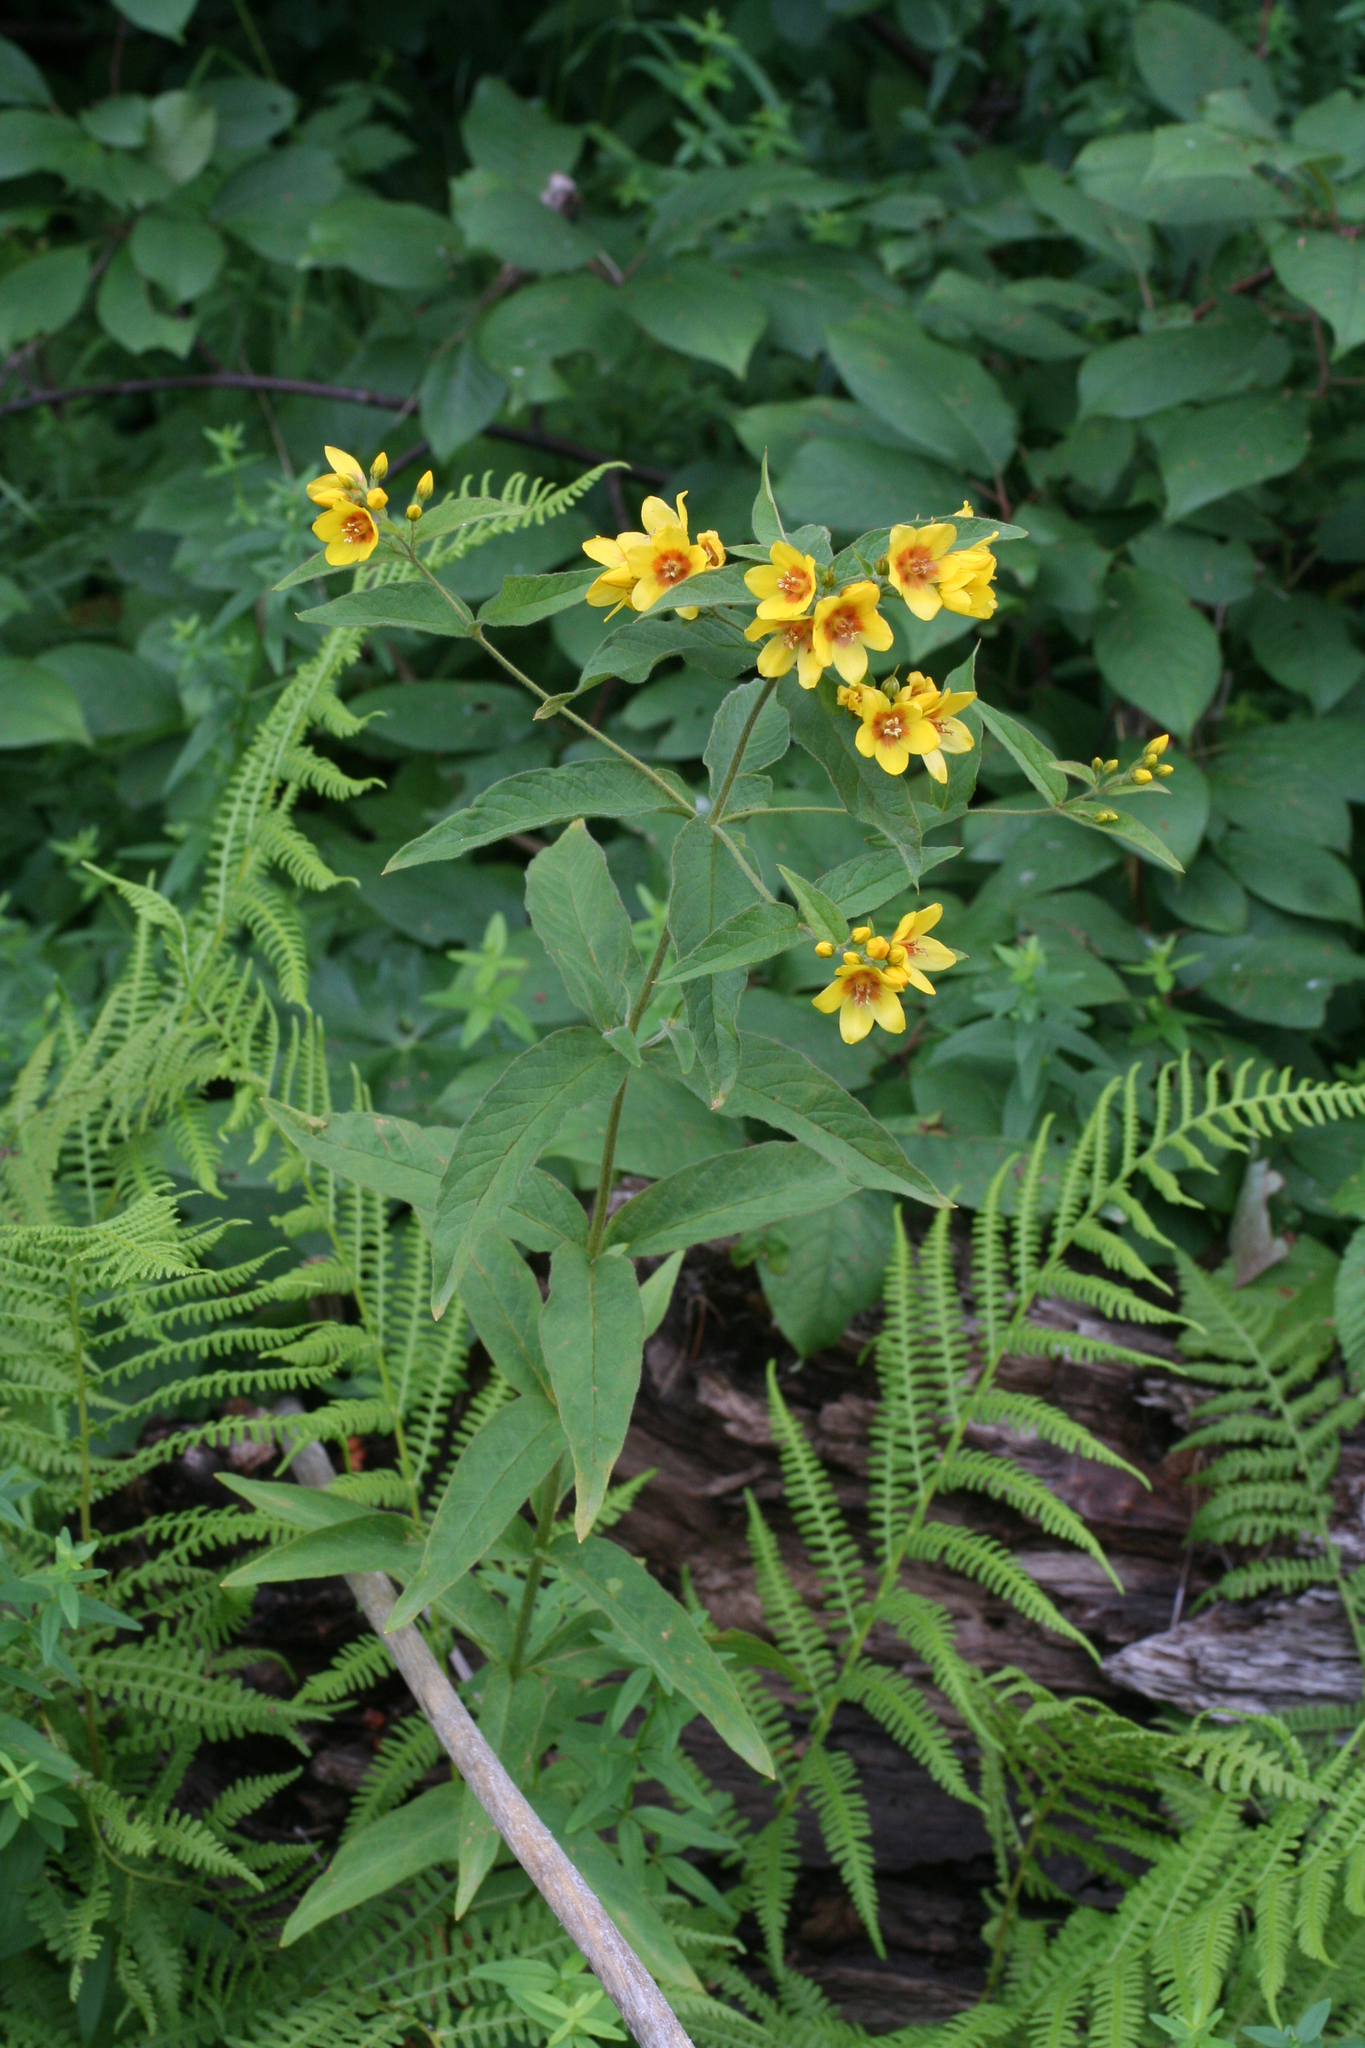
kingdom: Plantae
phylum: Tracheophyta
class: Magnoliopsida
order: Ericales
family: Primulaceae
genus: Lysimachia
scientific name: Lysimachia vulgaris
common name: Yellow loosestrife
